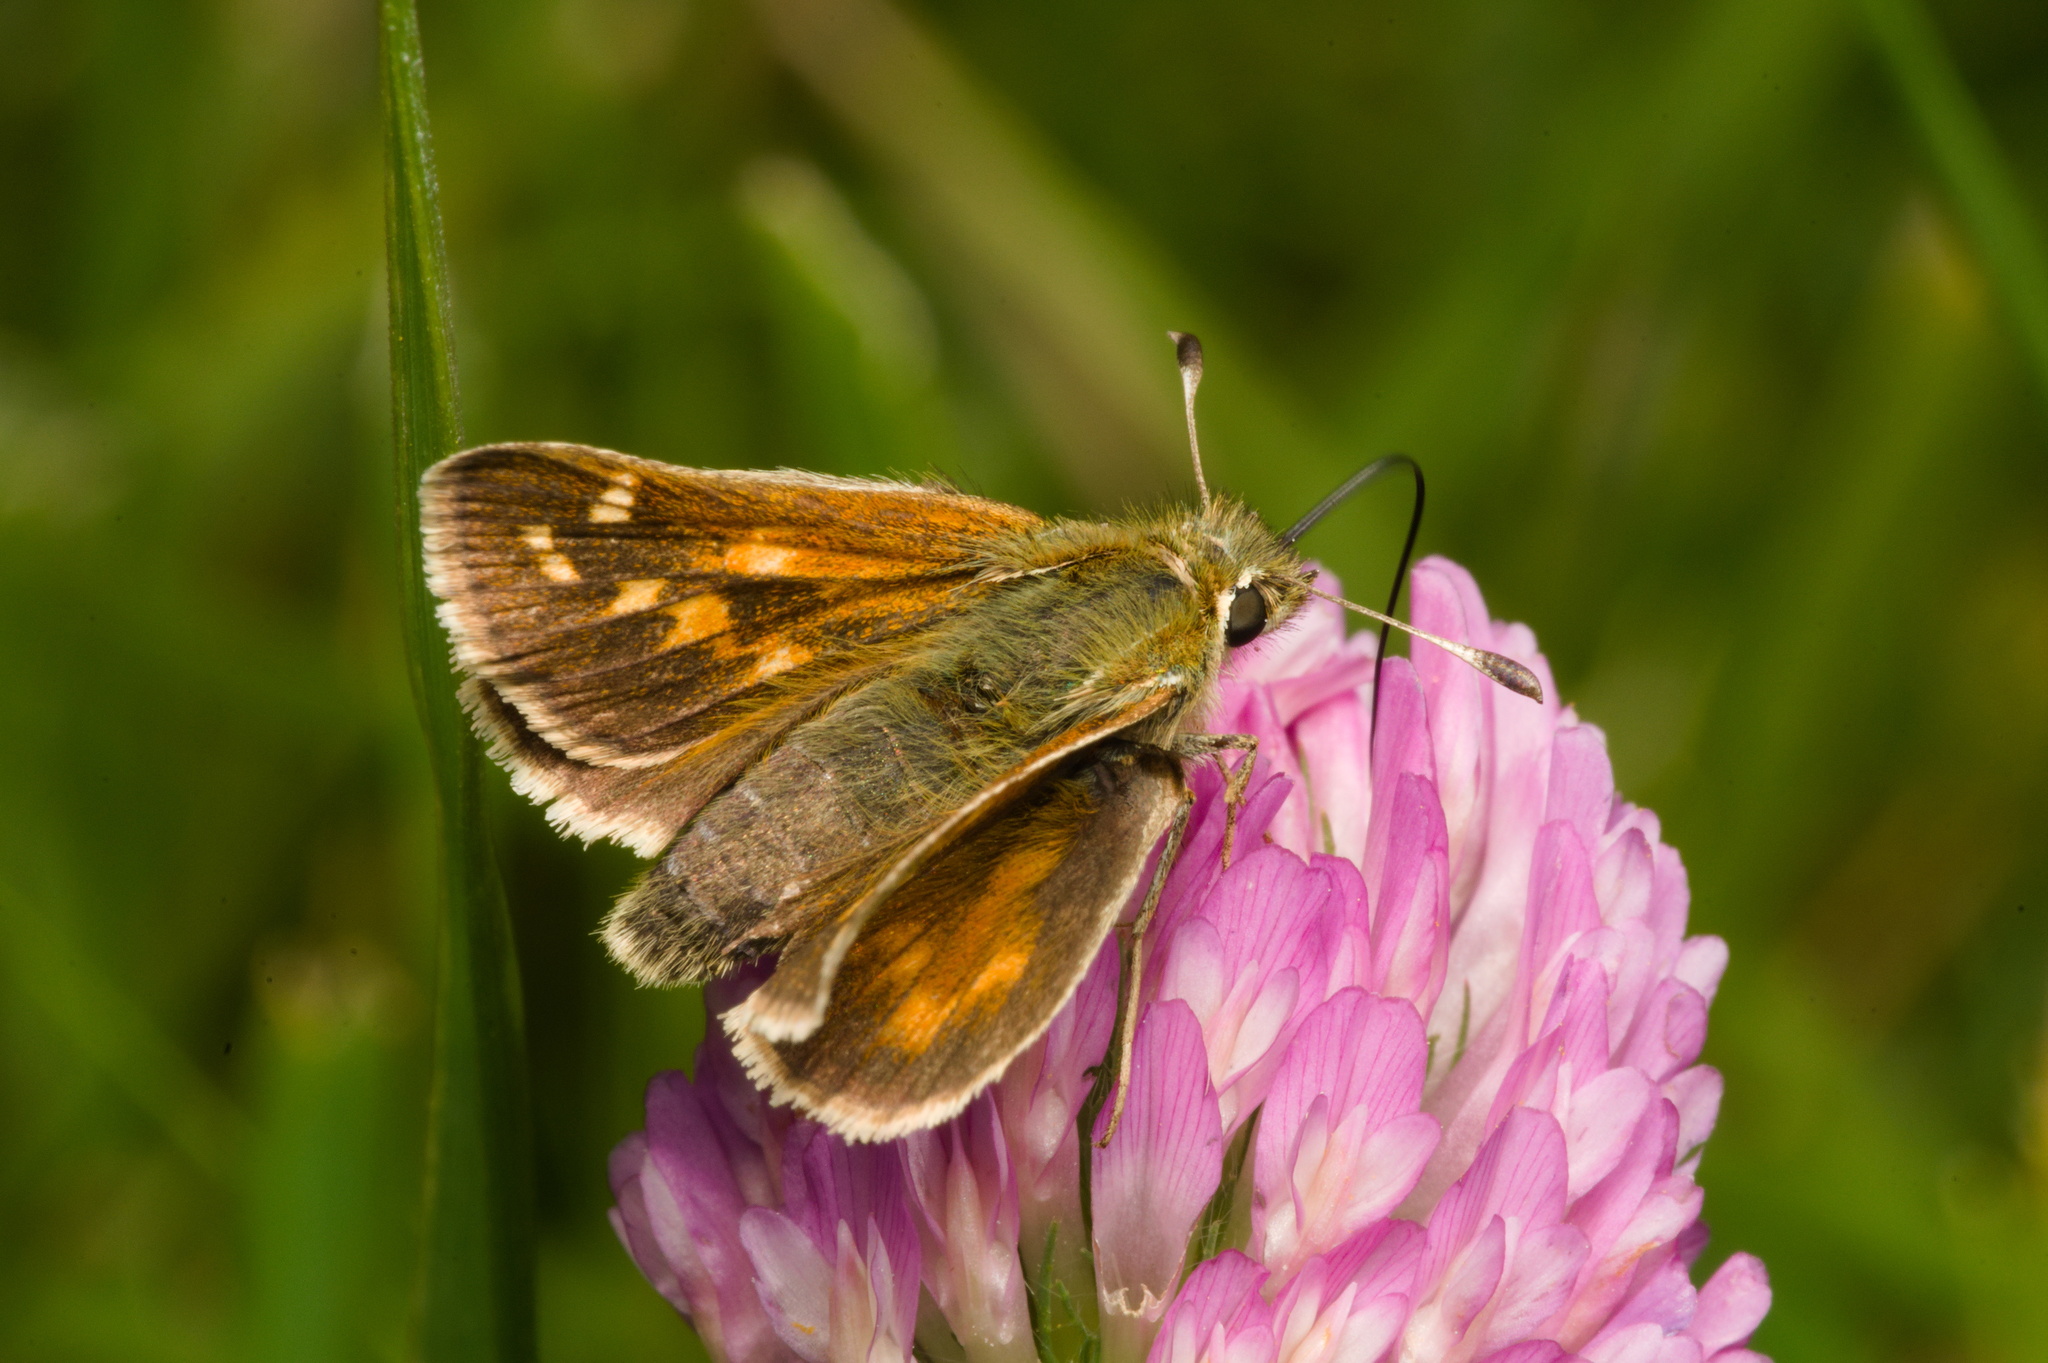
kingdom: Animalia
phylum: Arthropoda
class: Insecta
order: Lepidoptera
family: Hesperiidae
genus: Hesperia
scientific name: Hesperia comma
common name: Common branded skipper
